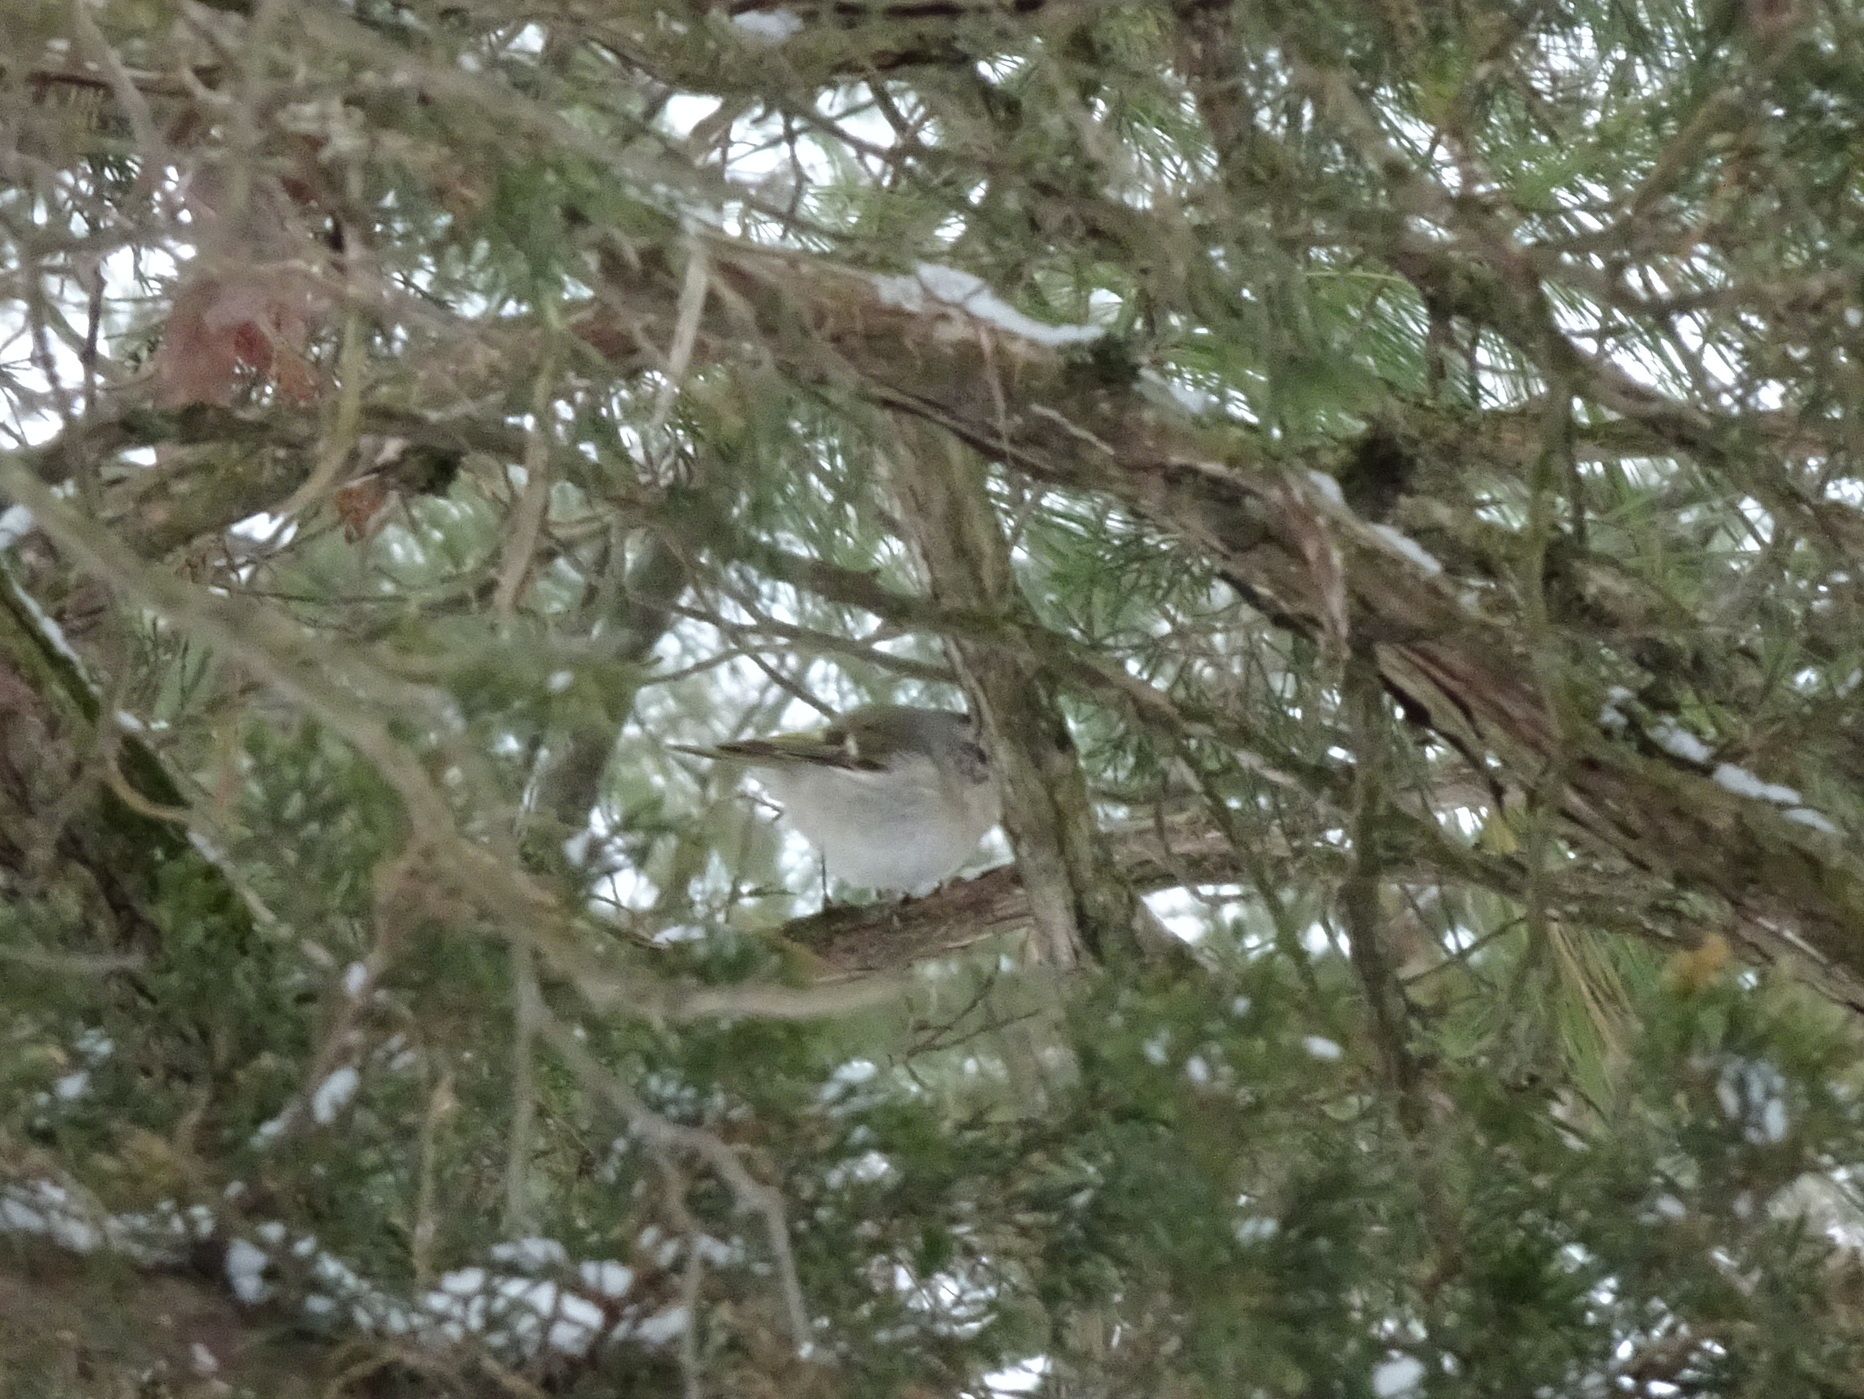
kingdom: Animalia
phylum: Chordata
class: Aves
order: Passeriformes
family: Regulidae
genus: Regulus
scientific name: Regulus satrapa
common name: Golden-crowned kinglet
